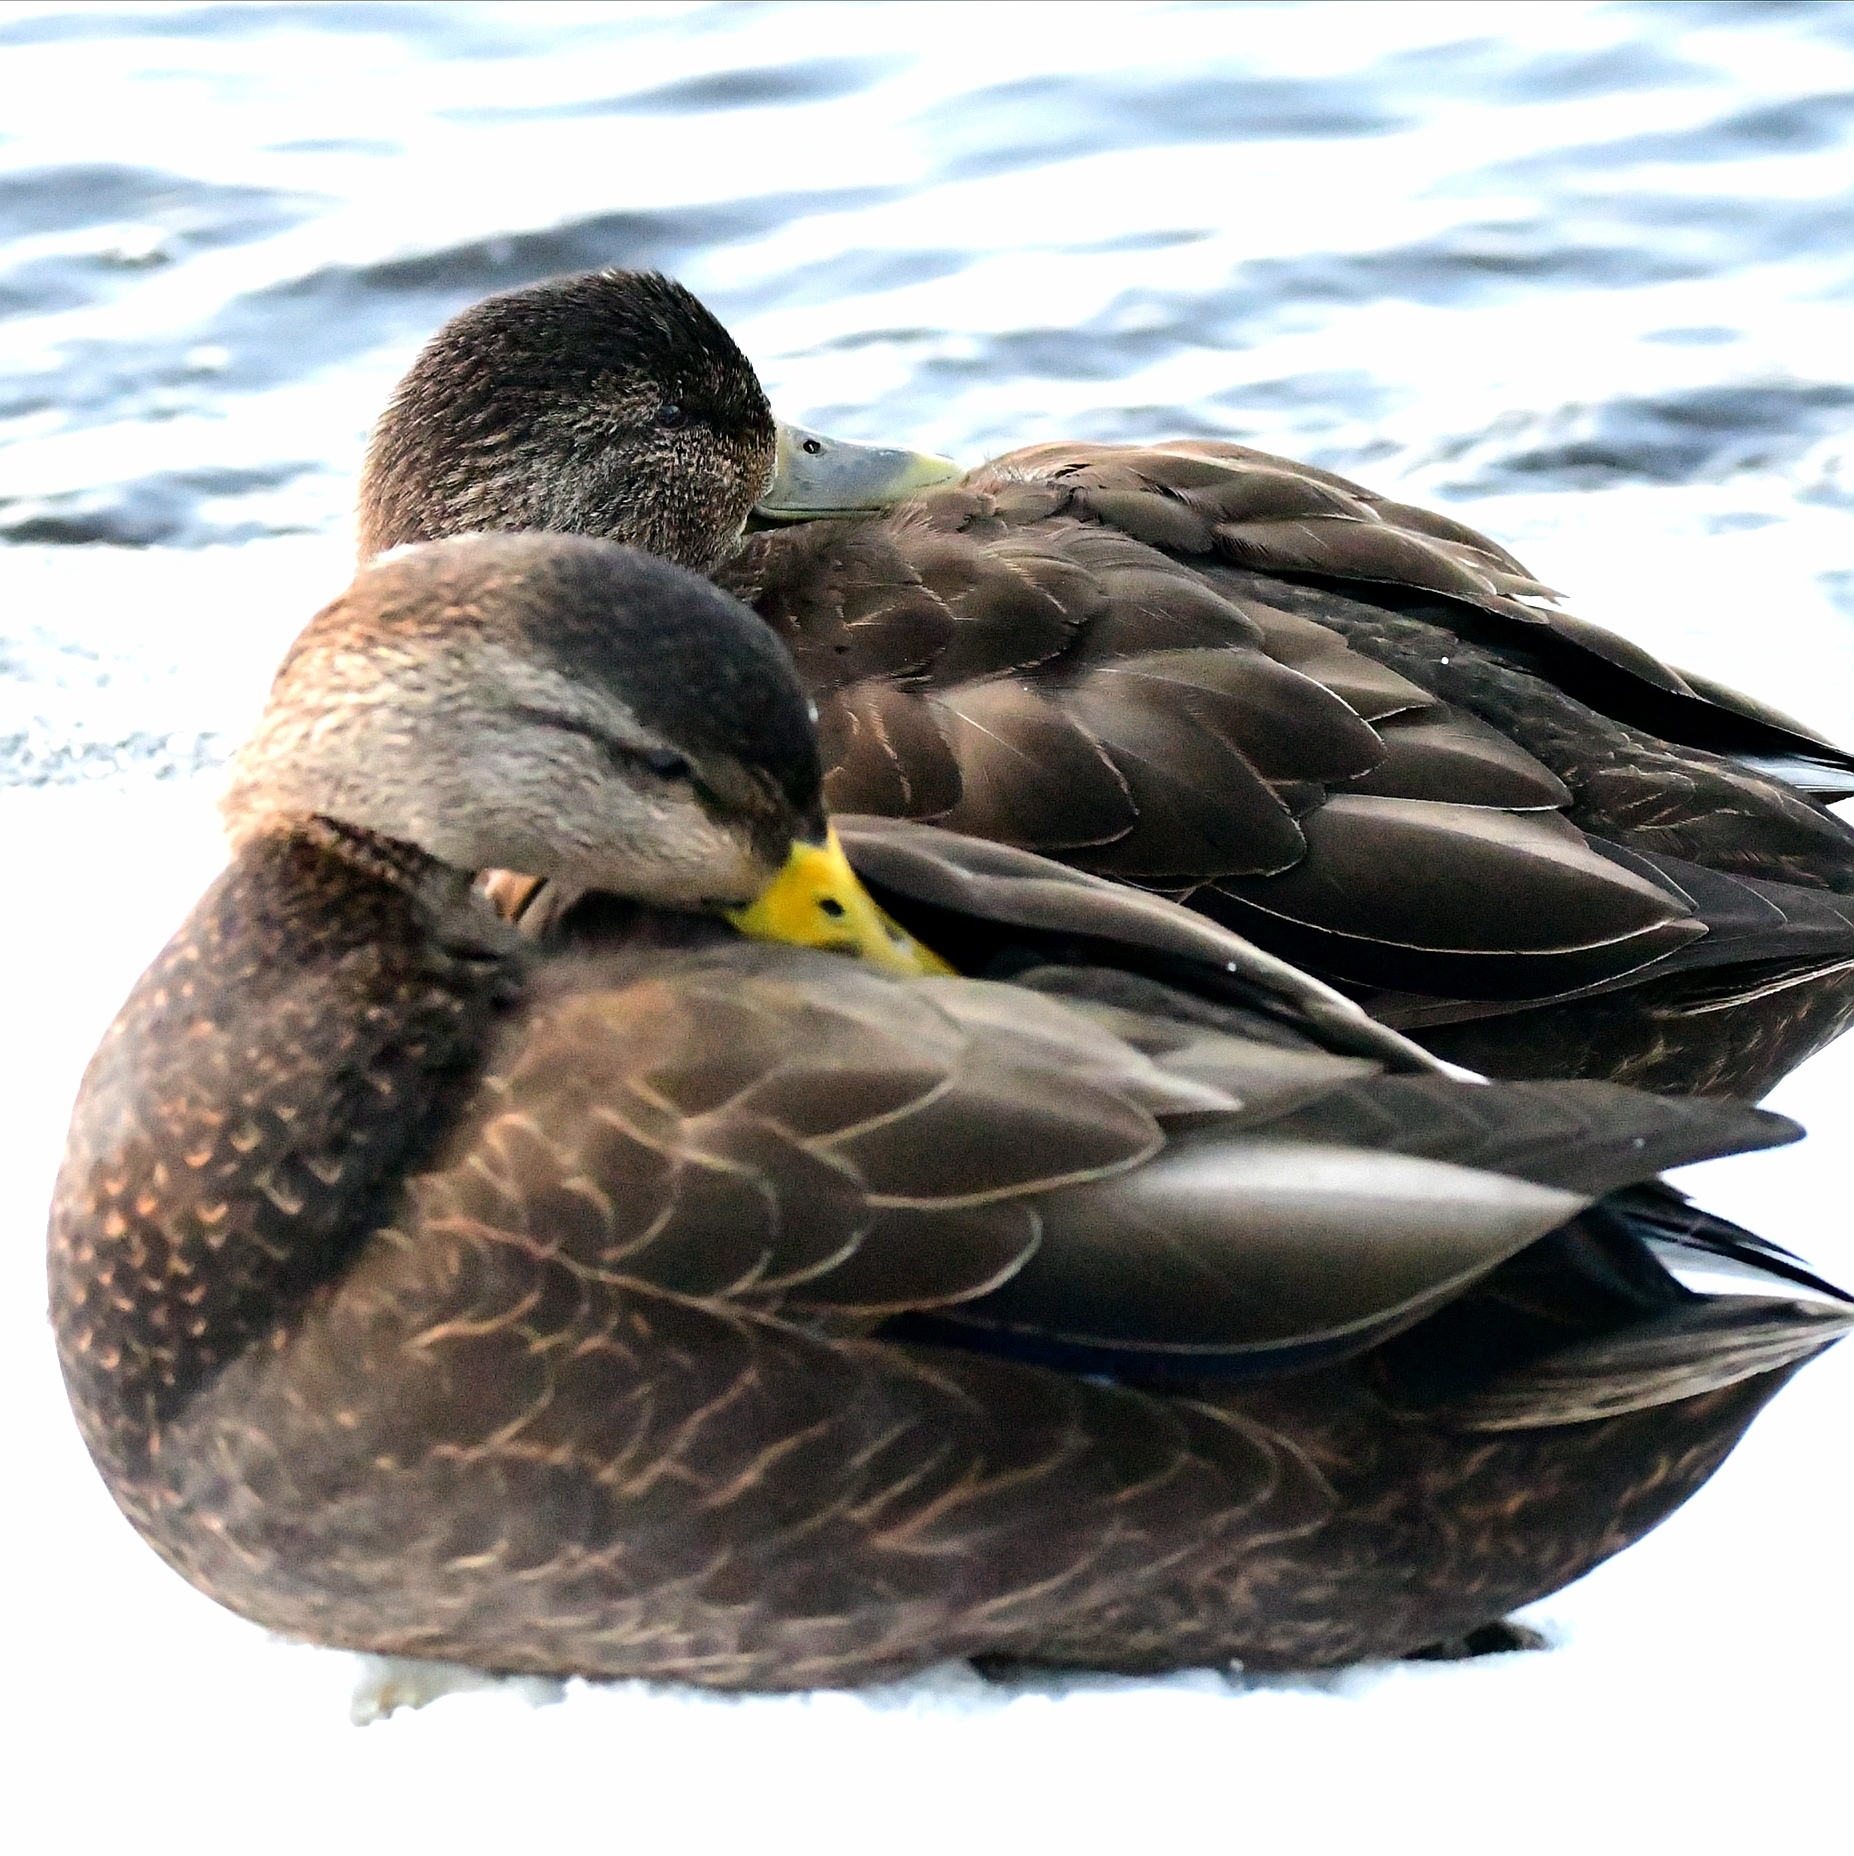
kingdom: Animalia
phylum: Chordata
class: Aves
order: Anseriformes
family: Anatidae
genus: Anas
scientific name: Anas rubripes
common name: American black duck
